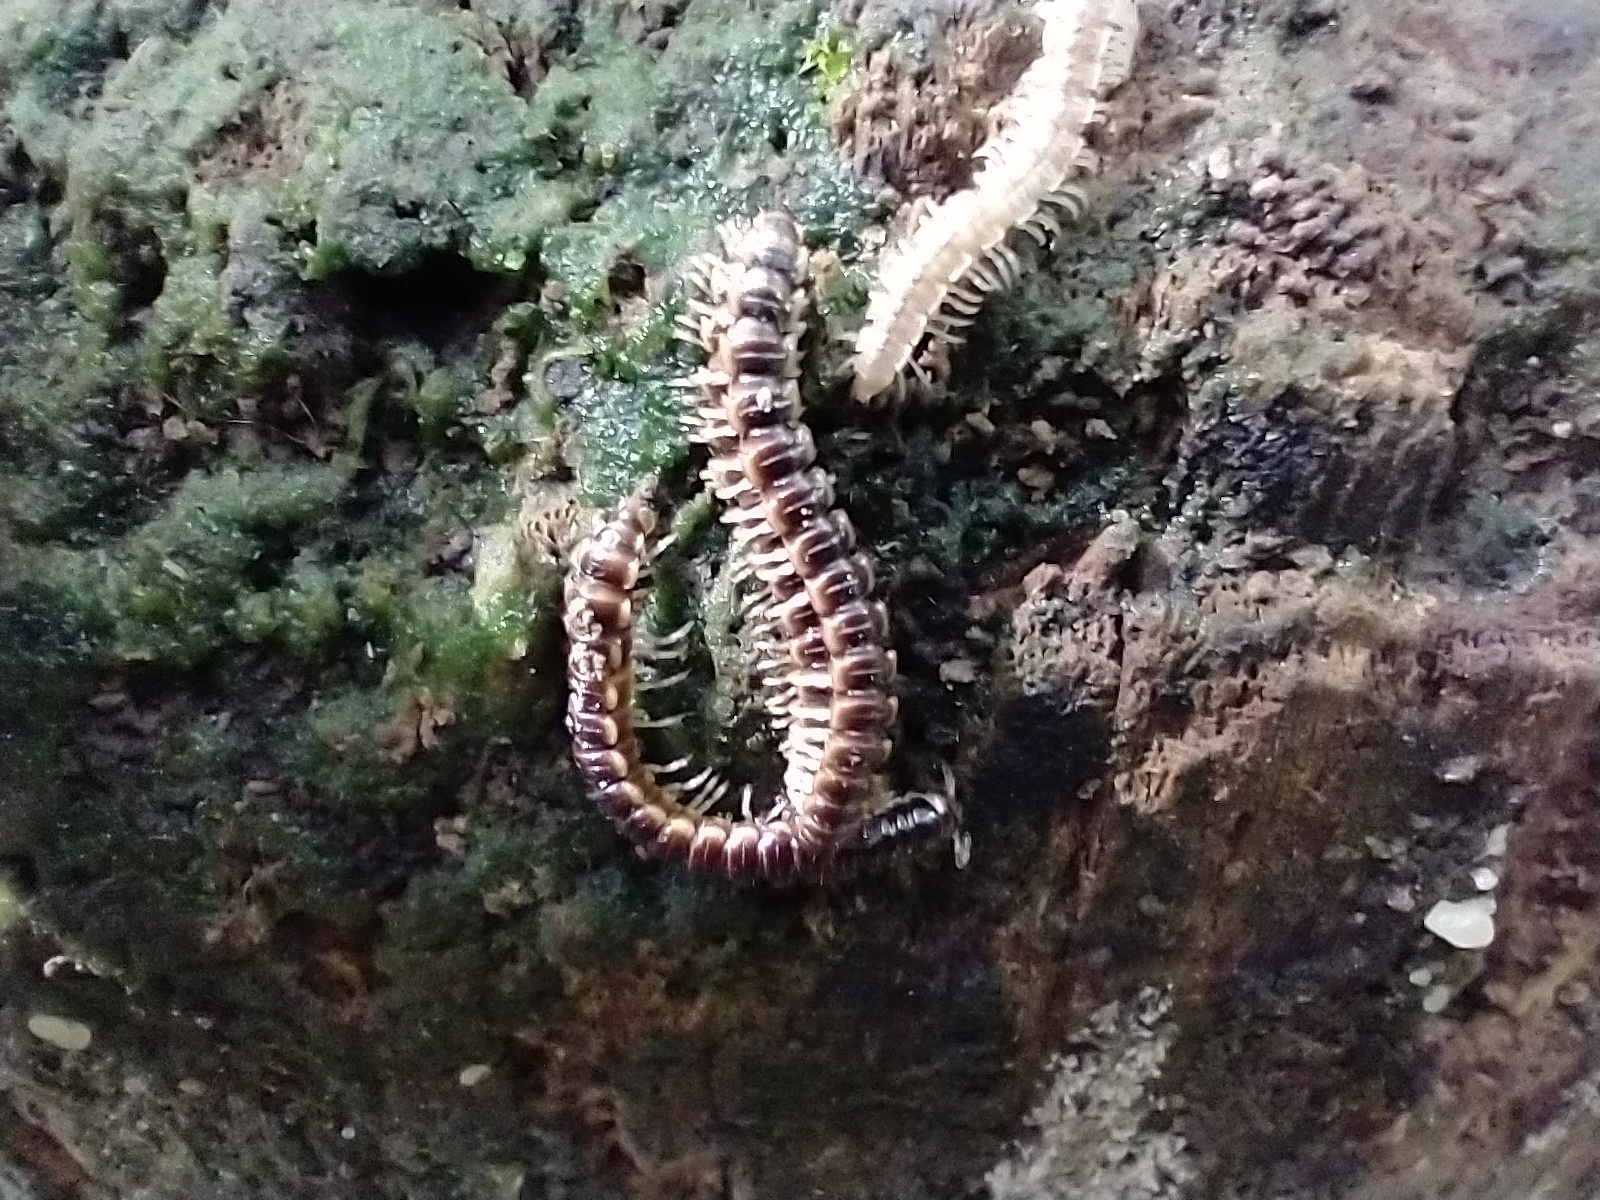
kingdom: Animalia
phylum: Arthropoda
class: Diplopoda
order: Polydesmida
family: Paradoxosomatidae
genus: Oxidus
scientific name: Oxidus gracilis
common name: Greenhouse millipede
